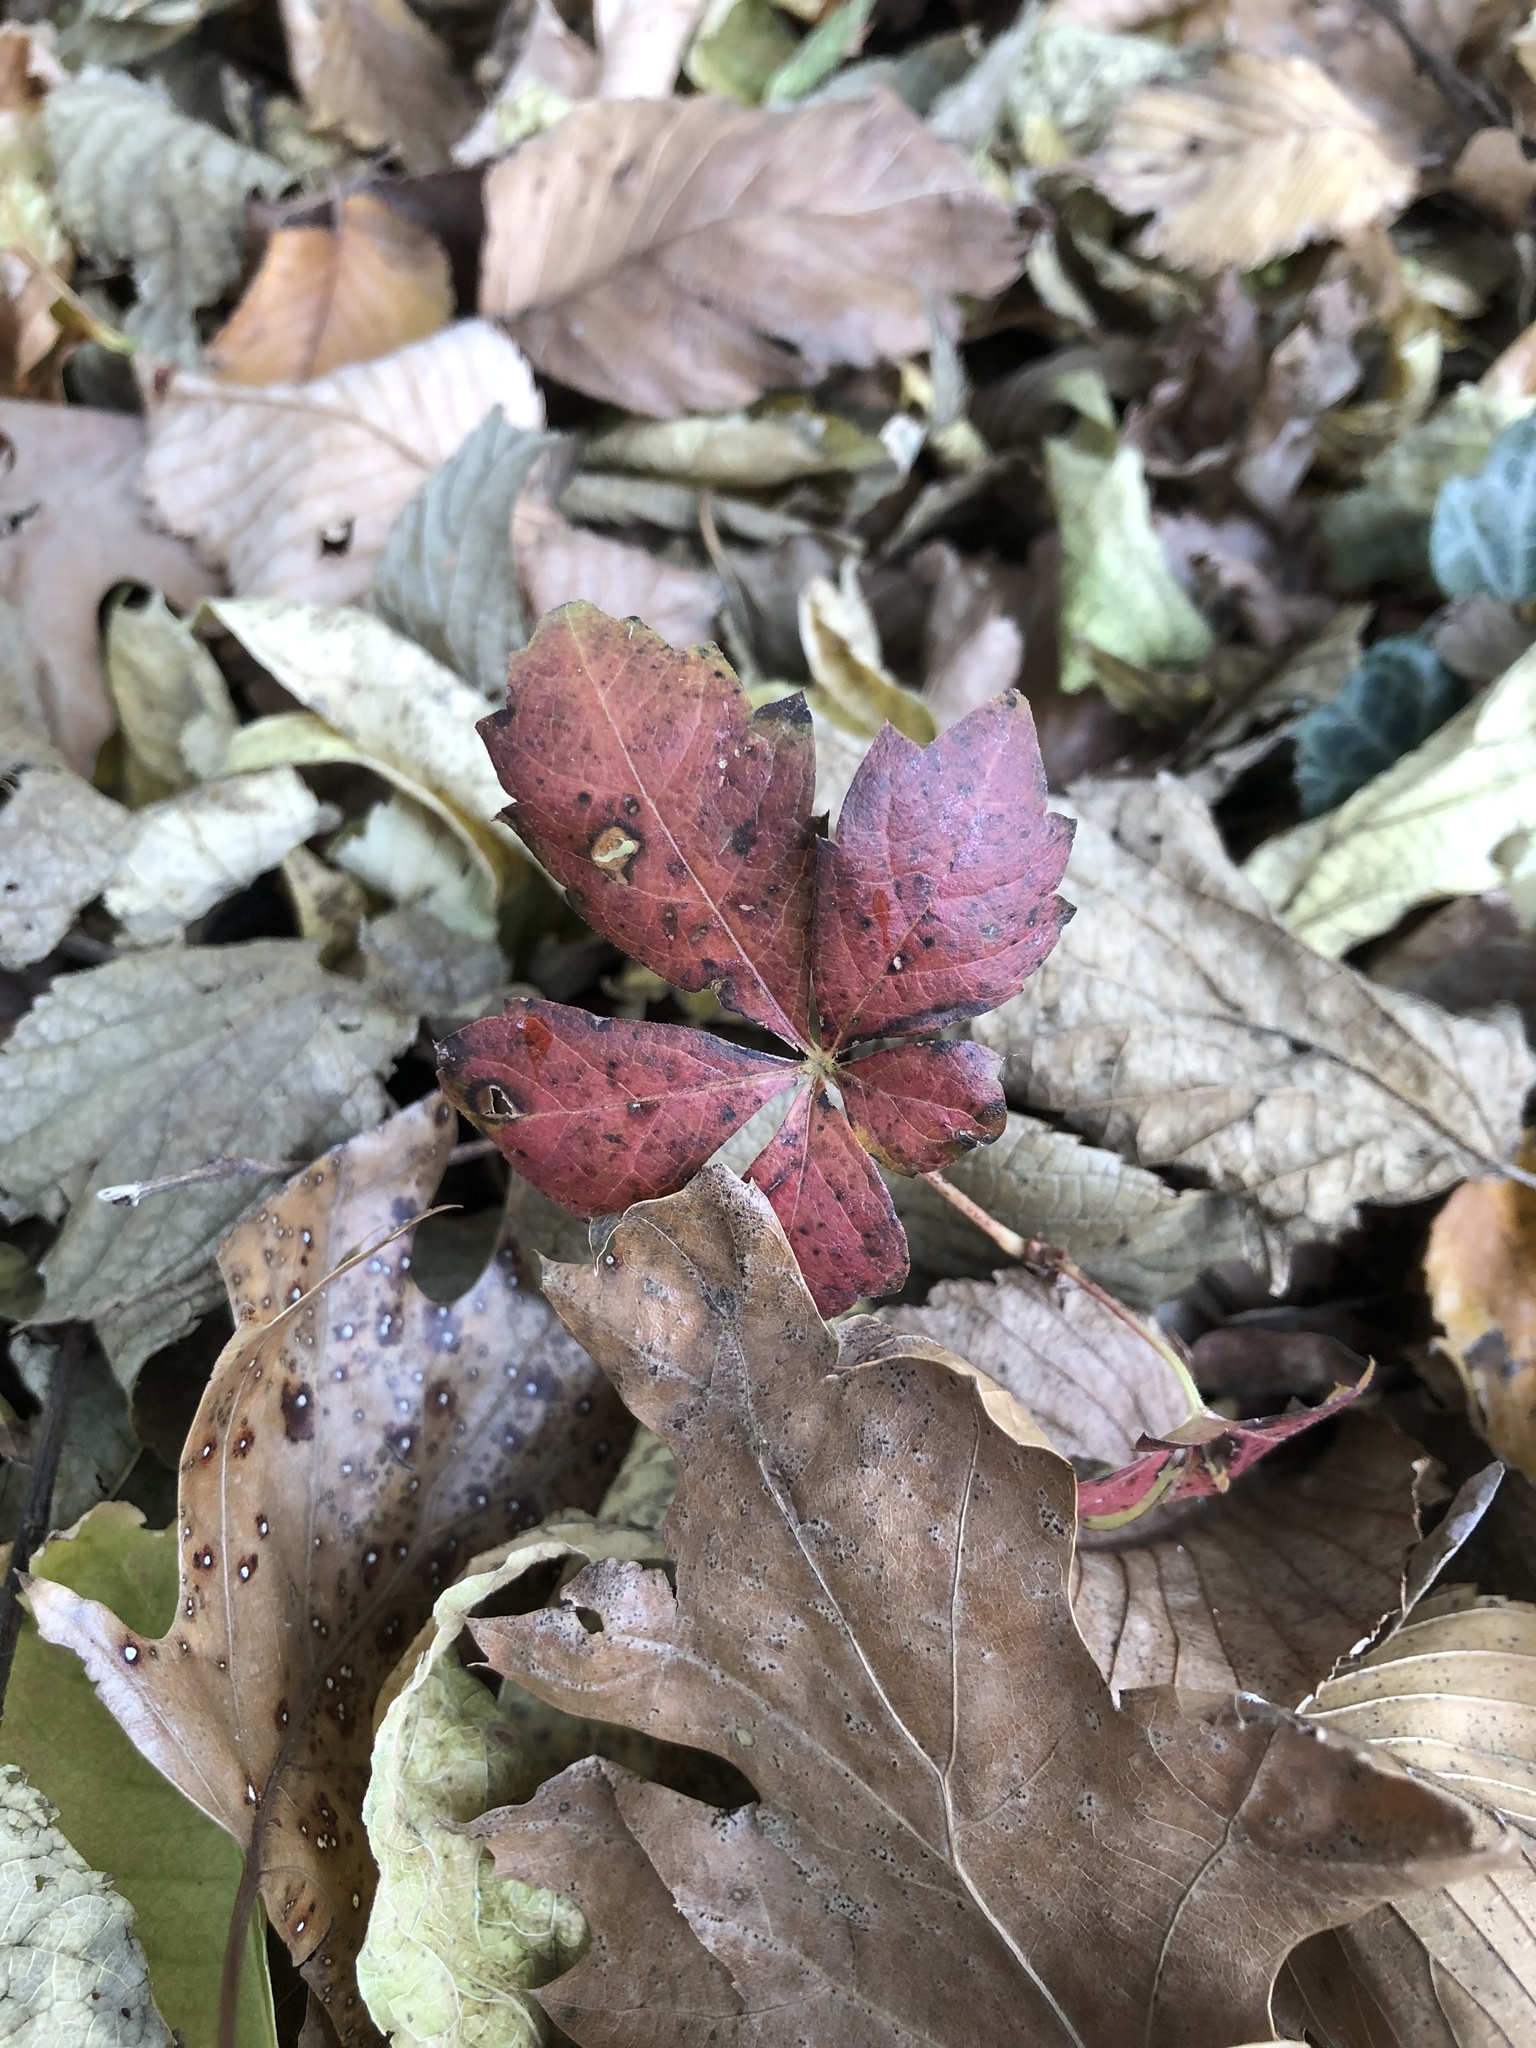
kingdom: Plantae
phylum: Tracheophyta
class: Magnoliopsida
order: Vitales
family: Vitaceae
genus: Parthenocissus
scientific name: Parthenocissus quinquefolia
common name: Virginia-creeper
